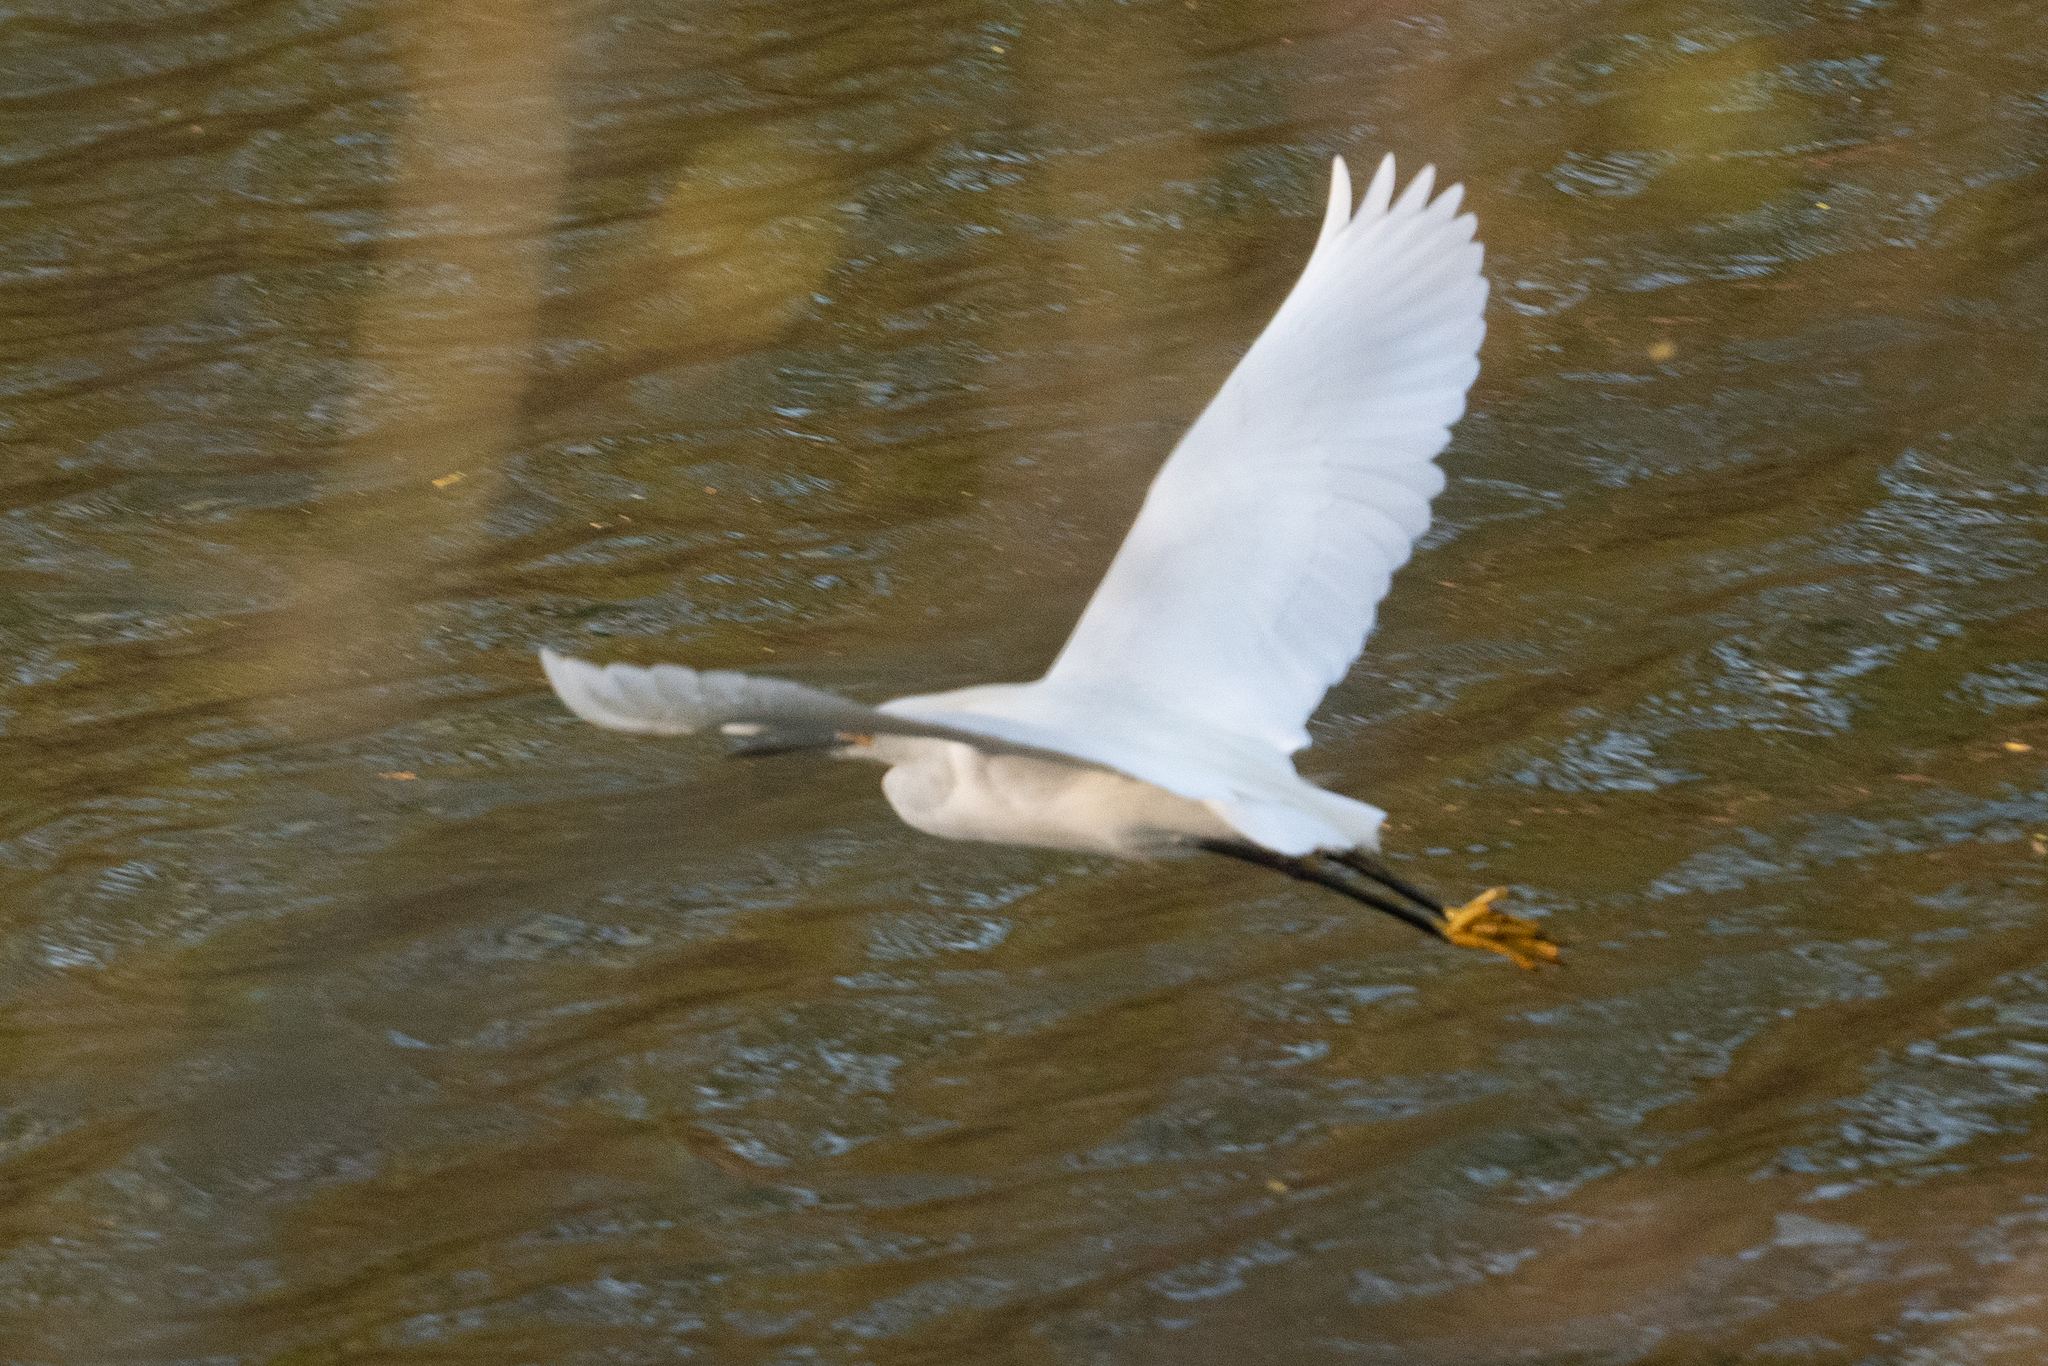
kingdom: Animalia
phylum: Chordata
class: Aves
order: Pelecaniformes
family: Ardeidae
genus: Egretta
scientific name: Egretta thula
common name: Snowy egret
